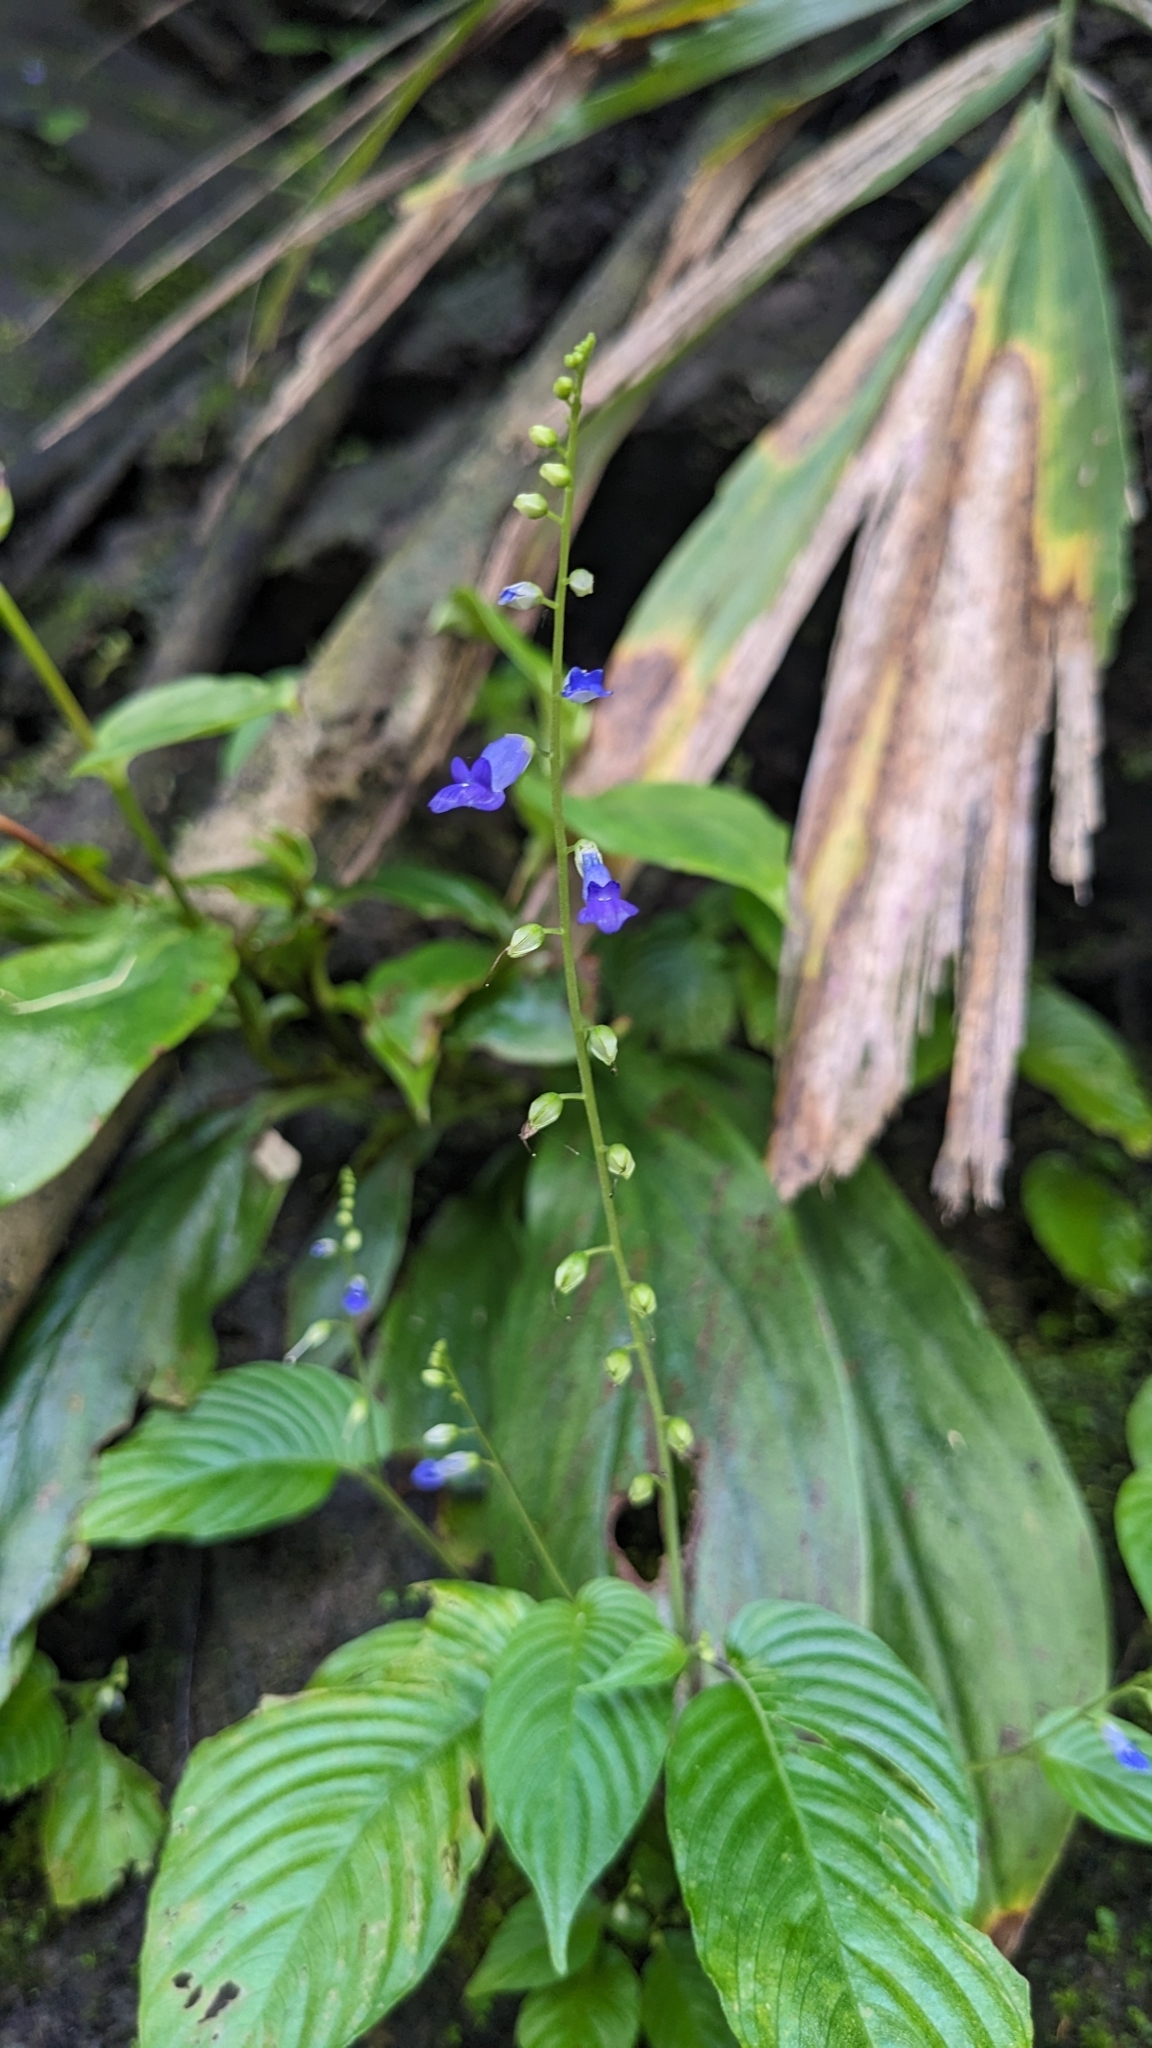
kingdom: Plantae
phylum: Tracheophyta
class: Magnoliopsida
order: Lamiales
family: Gesneriaceae
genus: Rhynchoglossum
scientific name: Rhynchoglossum obliquum
